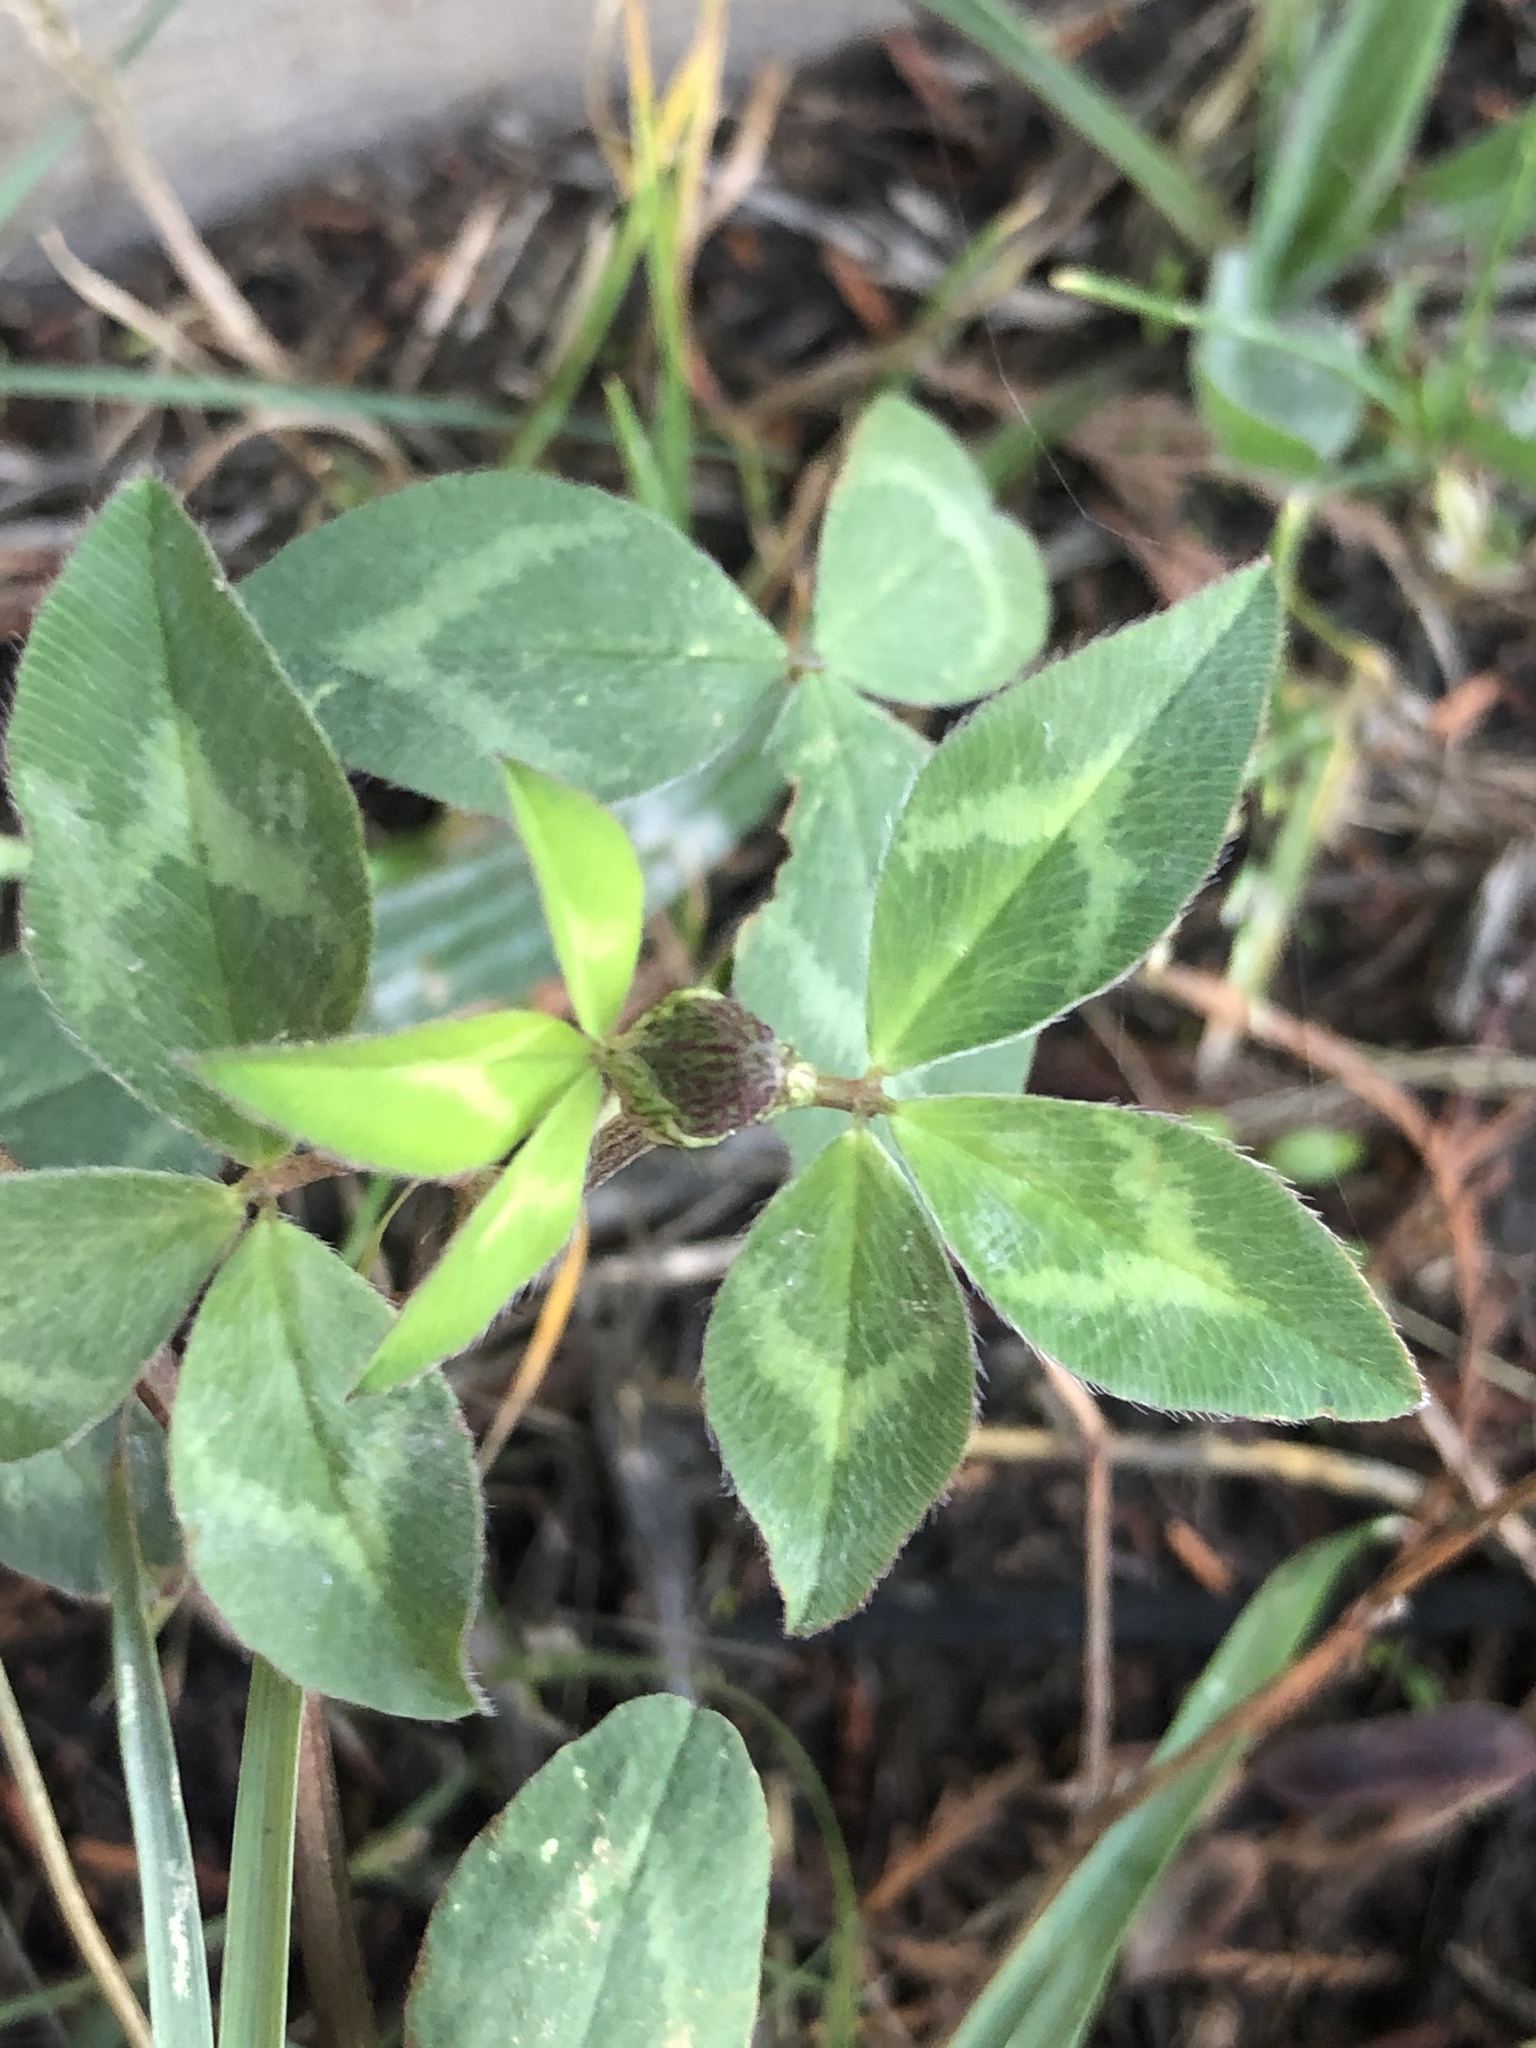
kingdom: Plantae
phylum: Tracheophyta
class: Magnoliopsida
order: Fabales
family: Fabaceae
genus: Trifolium
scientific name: Trifolium pratense
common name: Red clover
